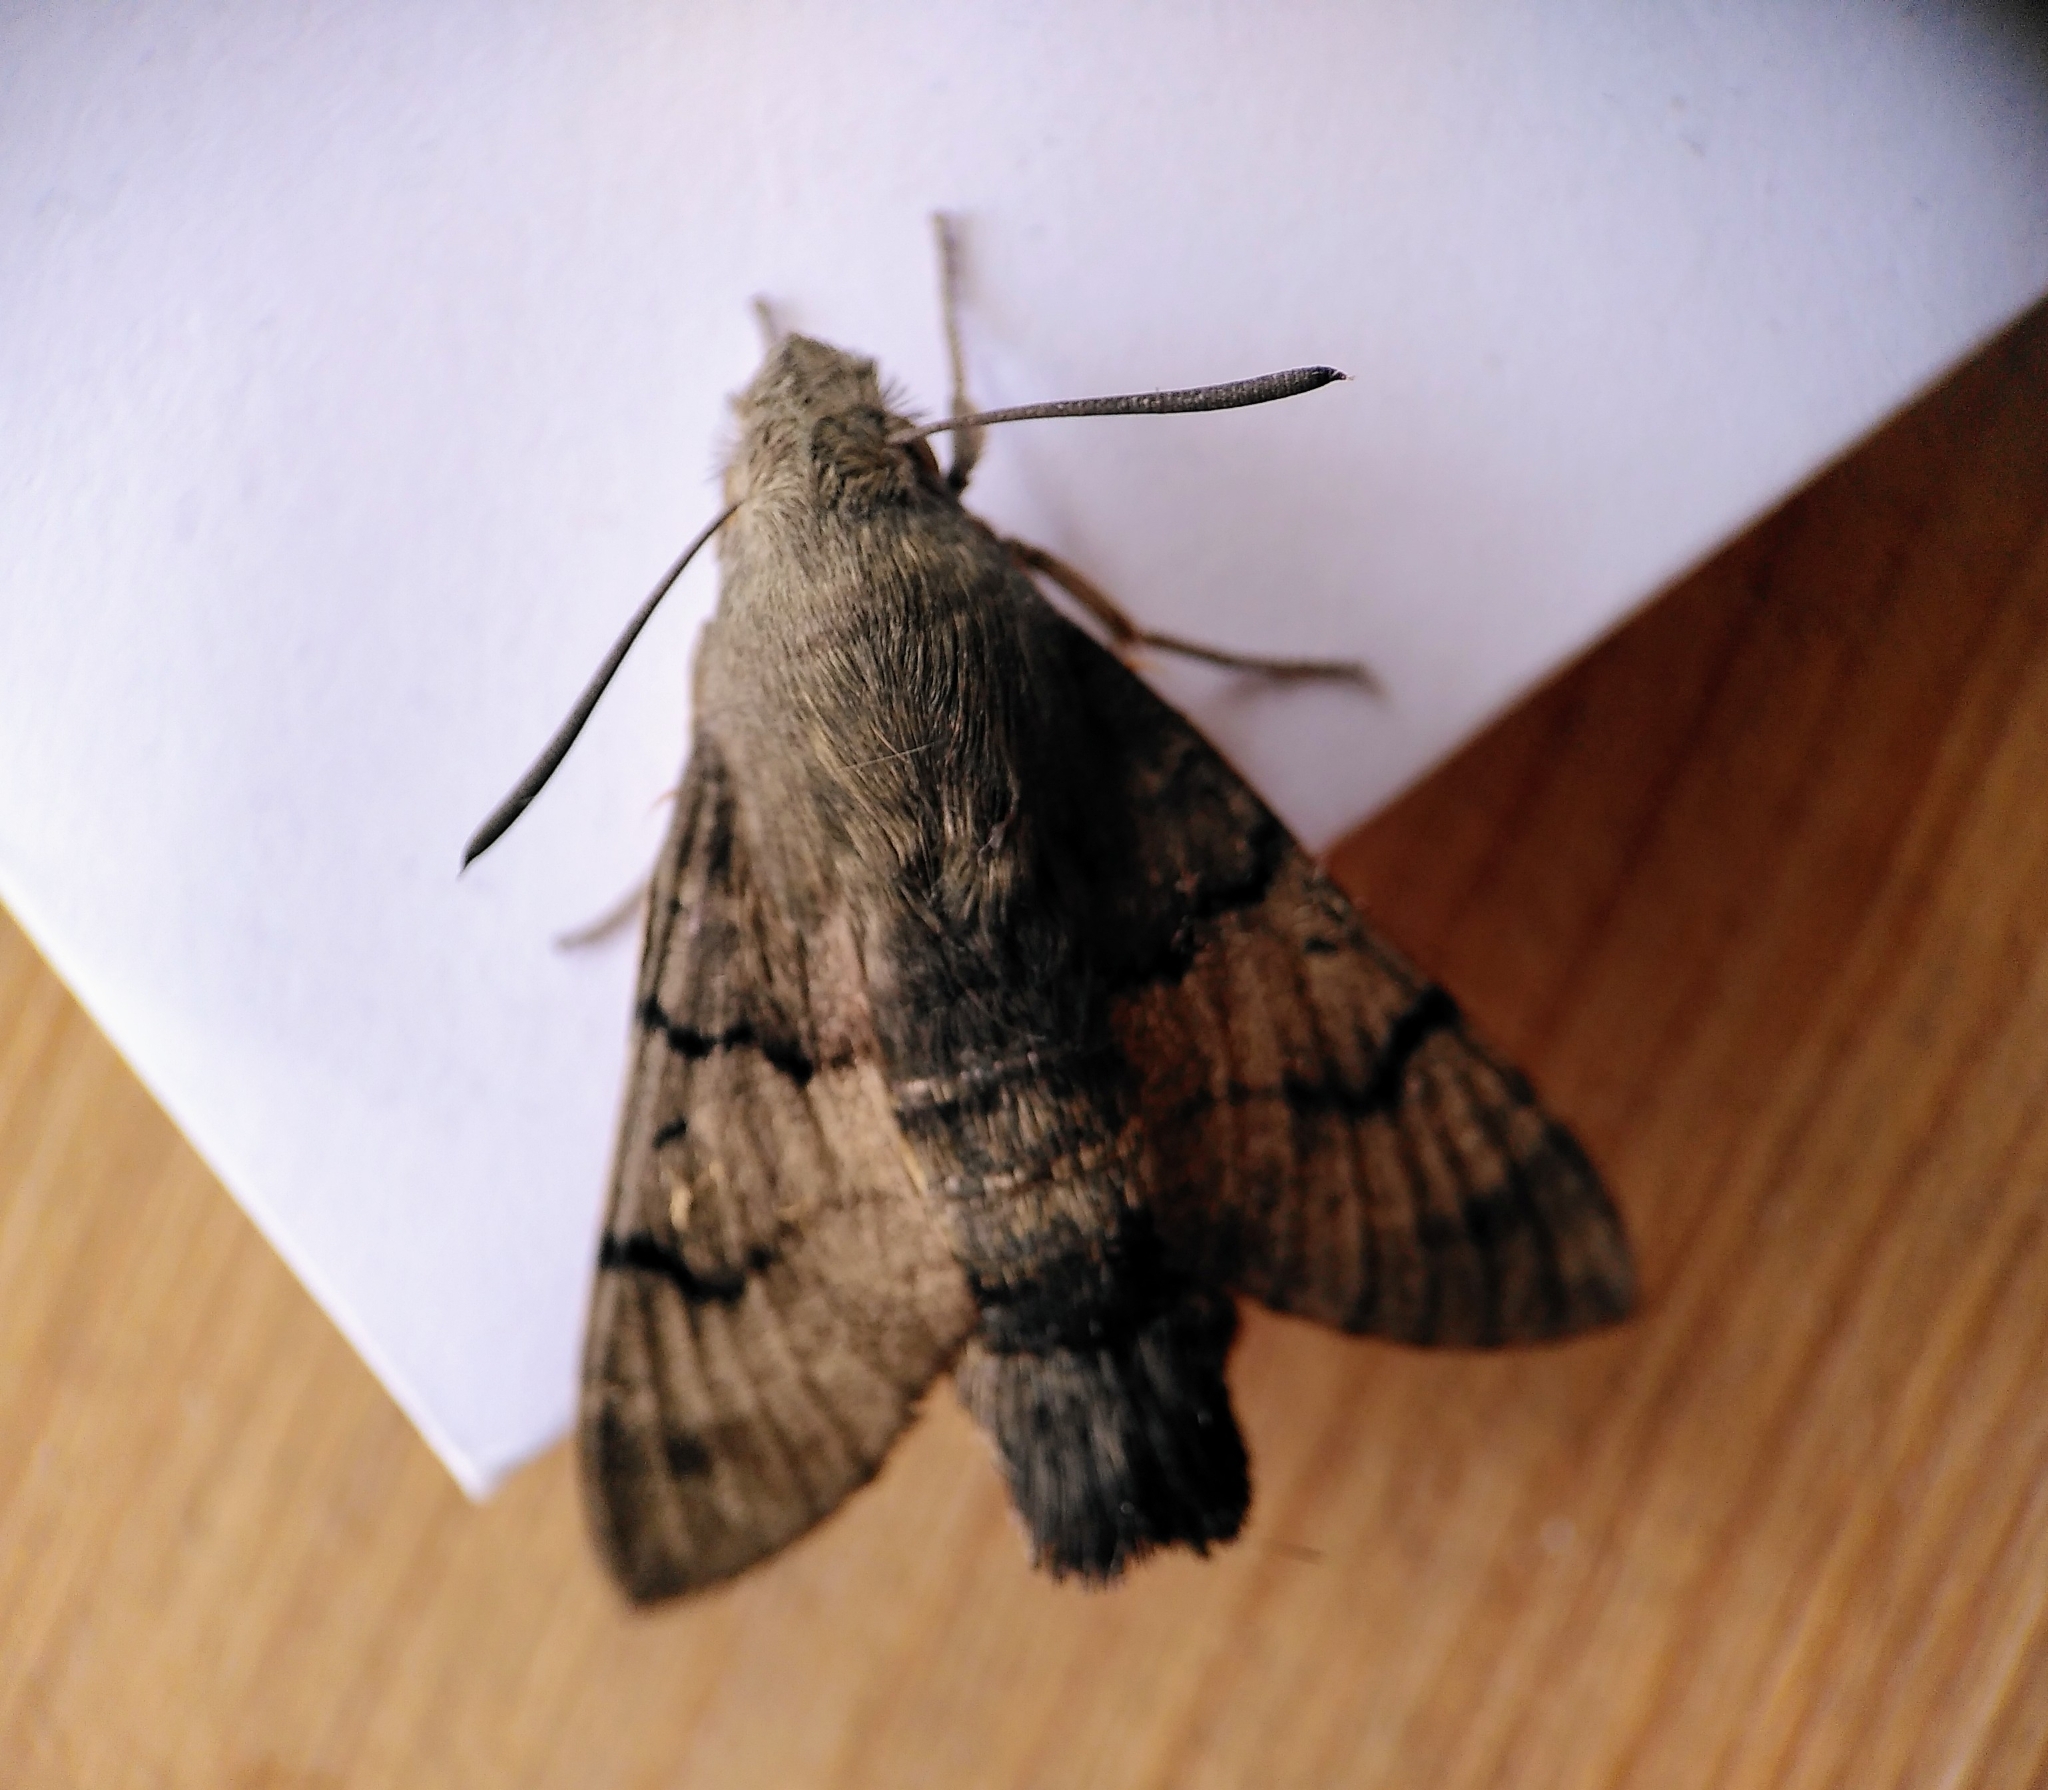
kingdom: Animalia
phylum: Arthropoda
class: Insecta
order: Lepidoptera
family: Sphingidae
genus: Macroglossum
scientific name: Macroglossum stellatarum
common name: Humming-bird hawk-moth
